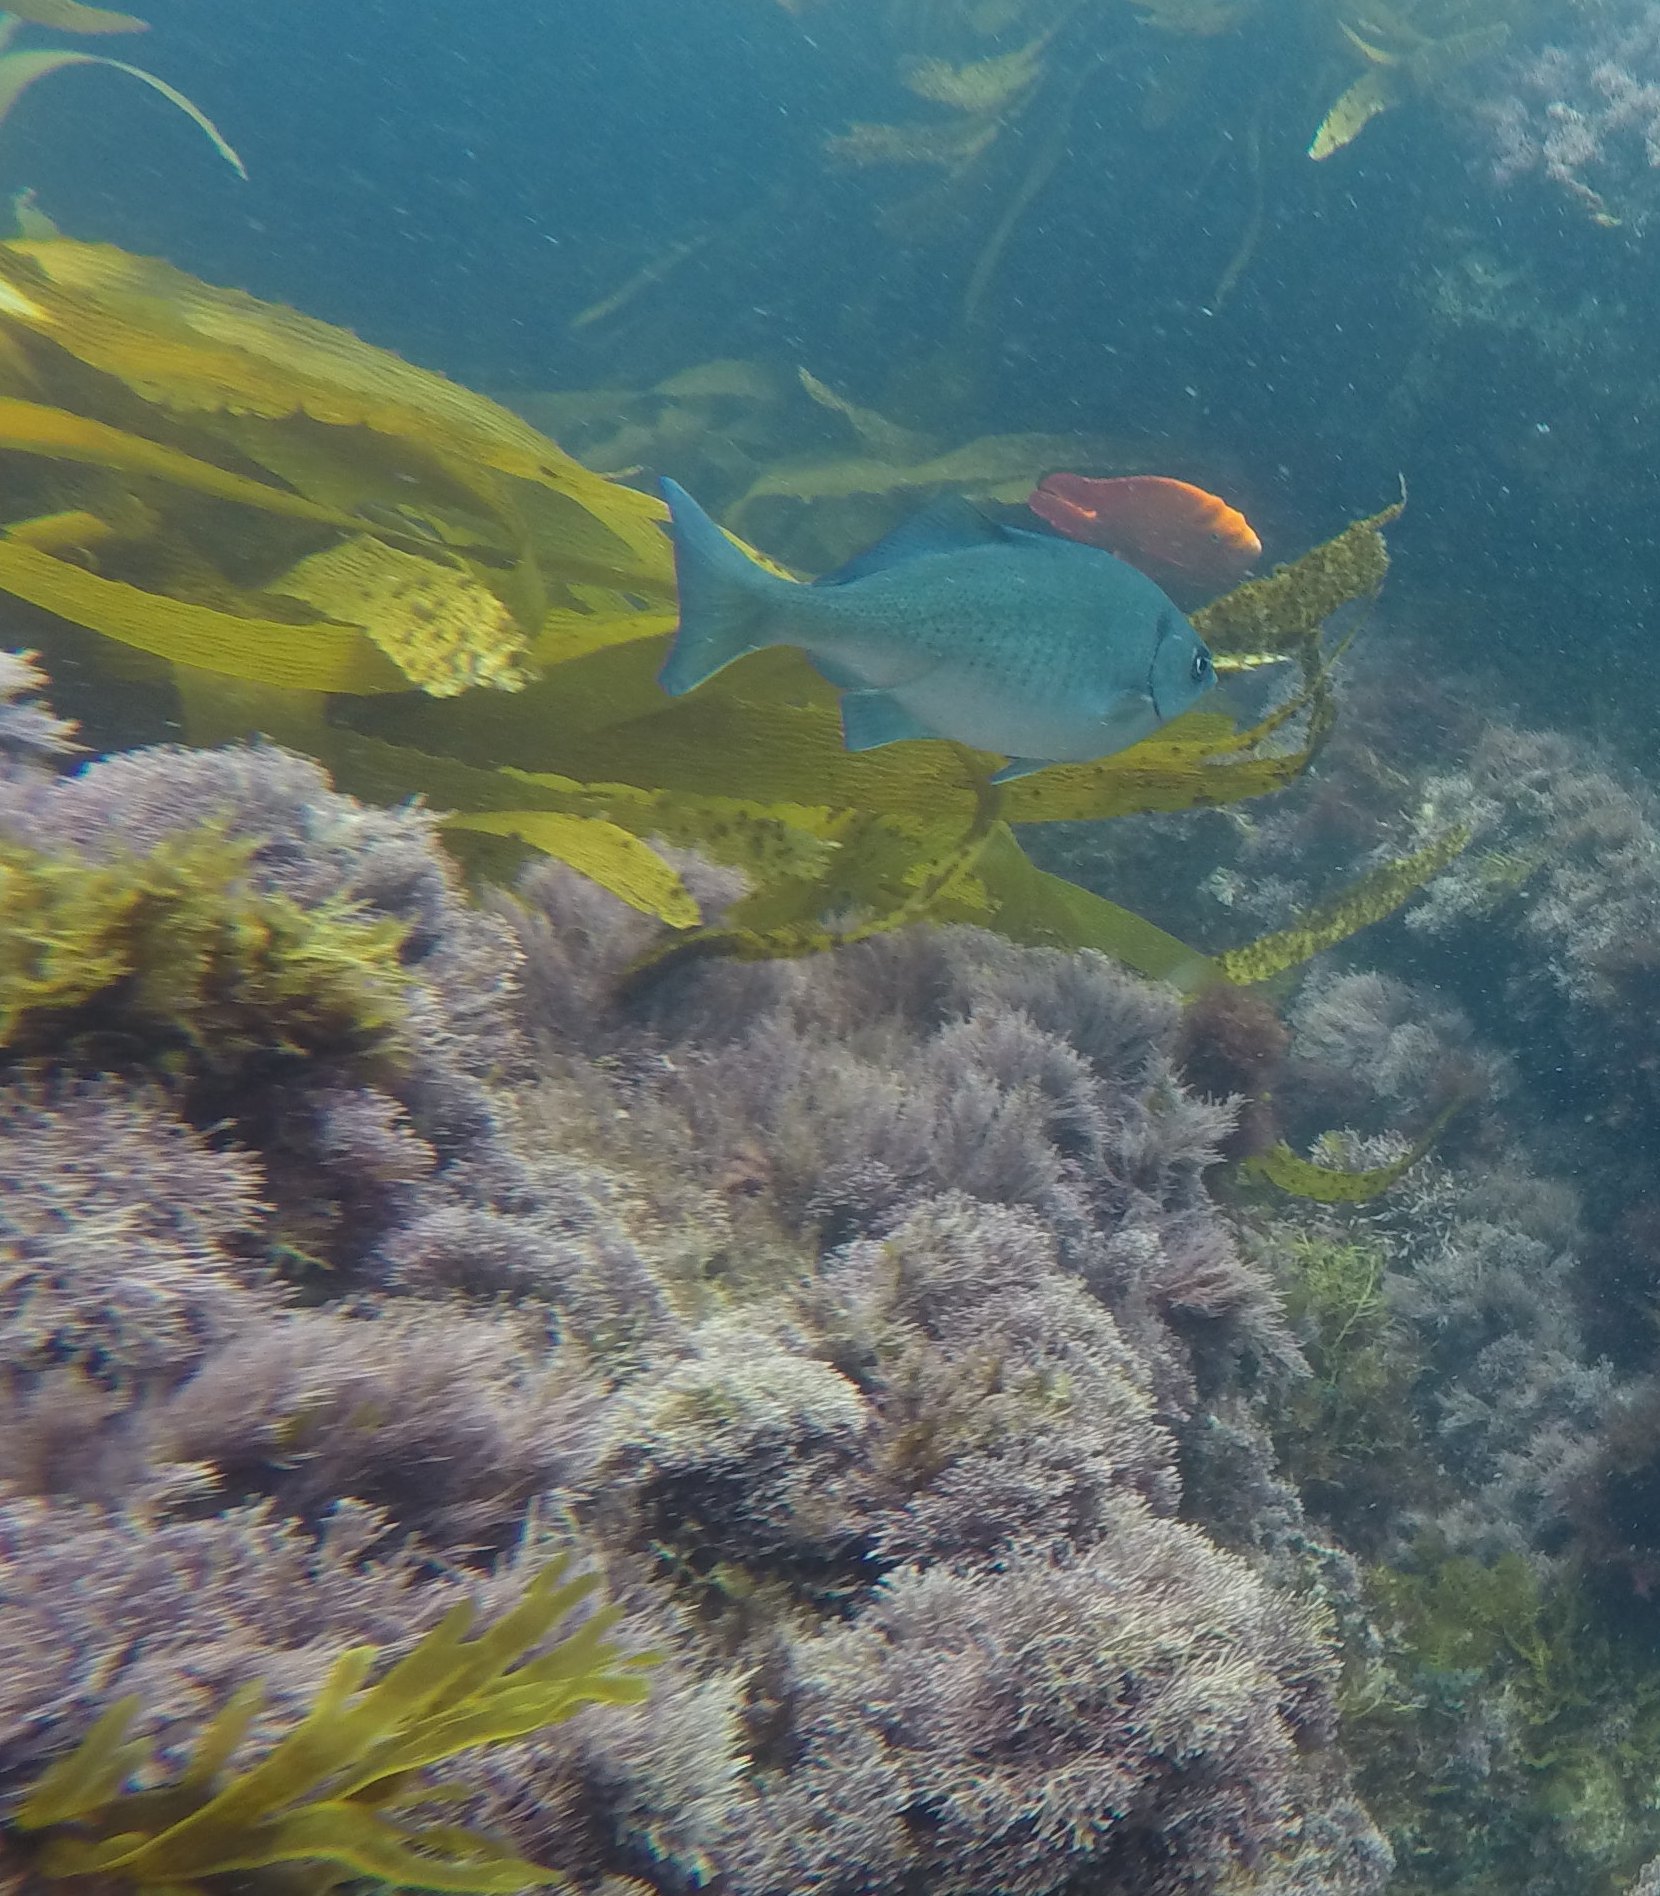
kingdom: Animalia
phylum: Chordata
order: Perciformes
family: Kyphosidae
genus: Medialuna
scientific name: Medialuna californiensis
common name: Halfmoon
